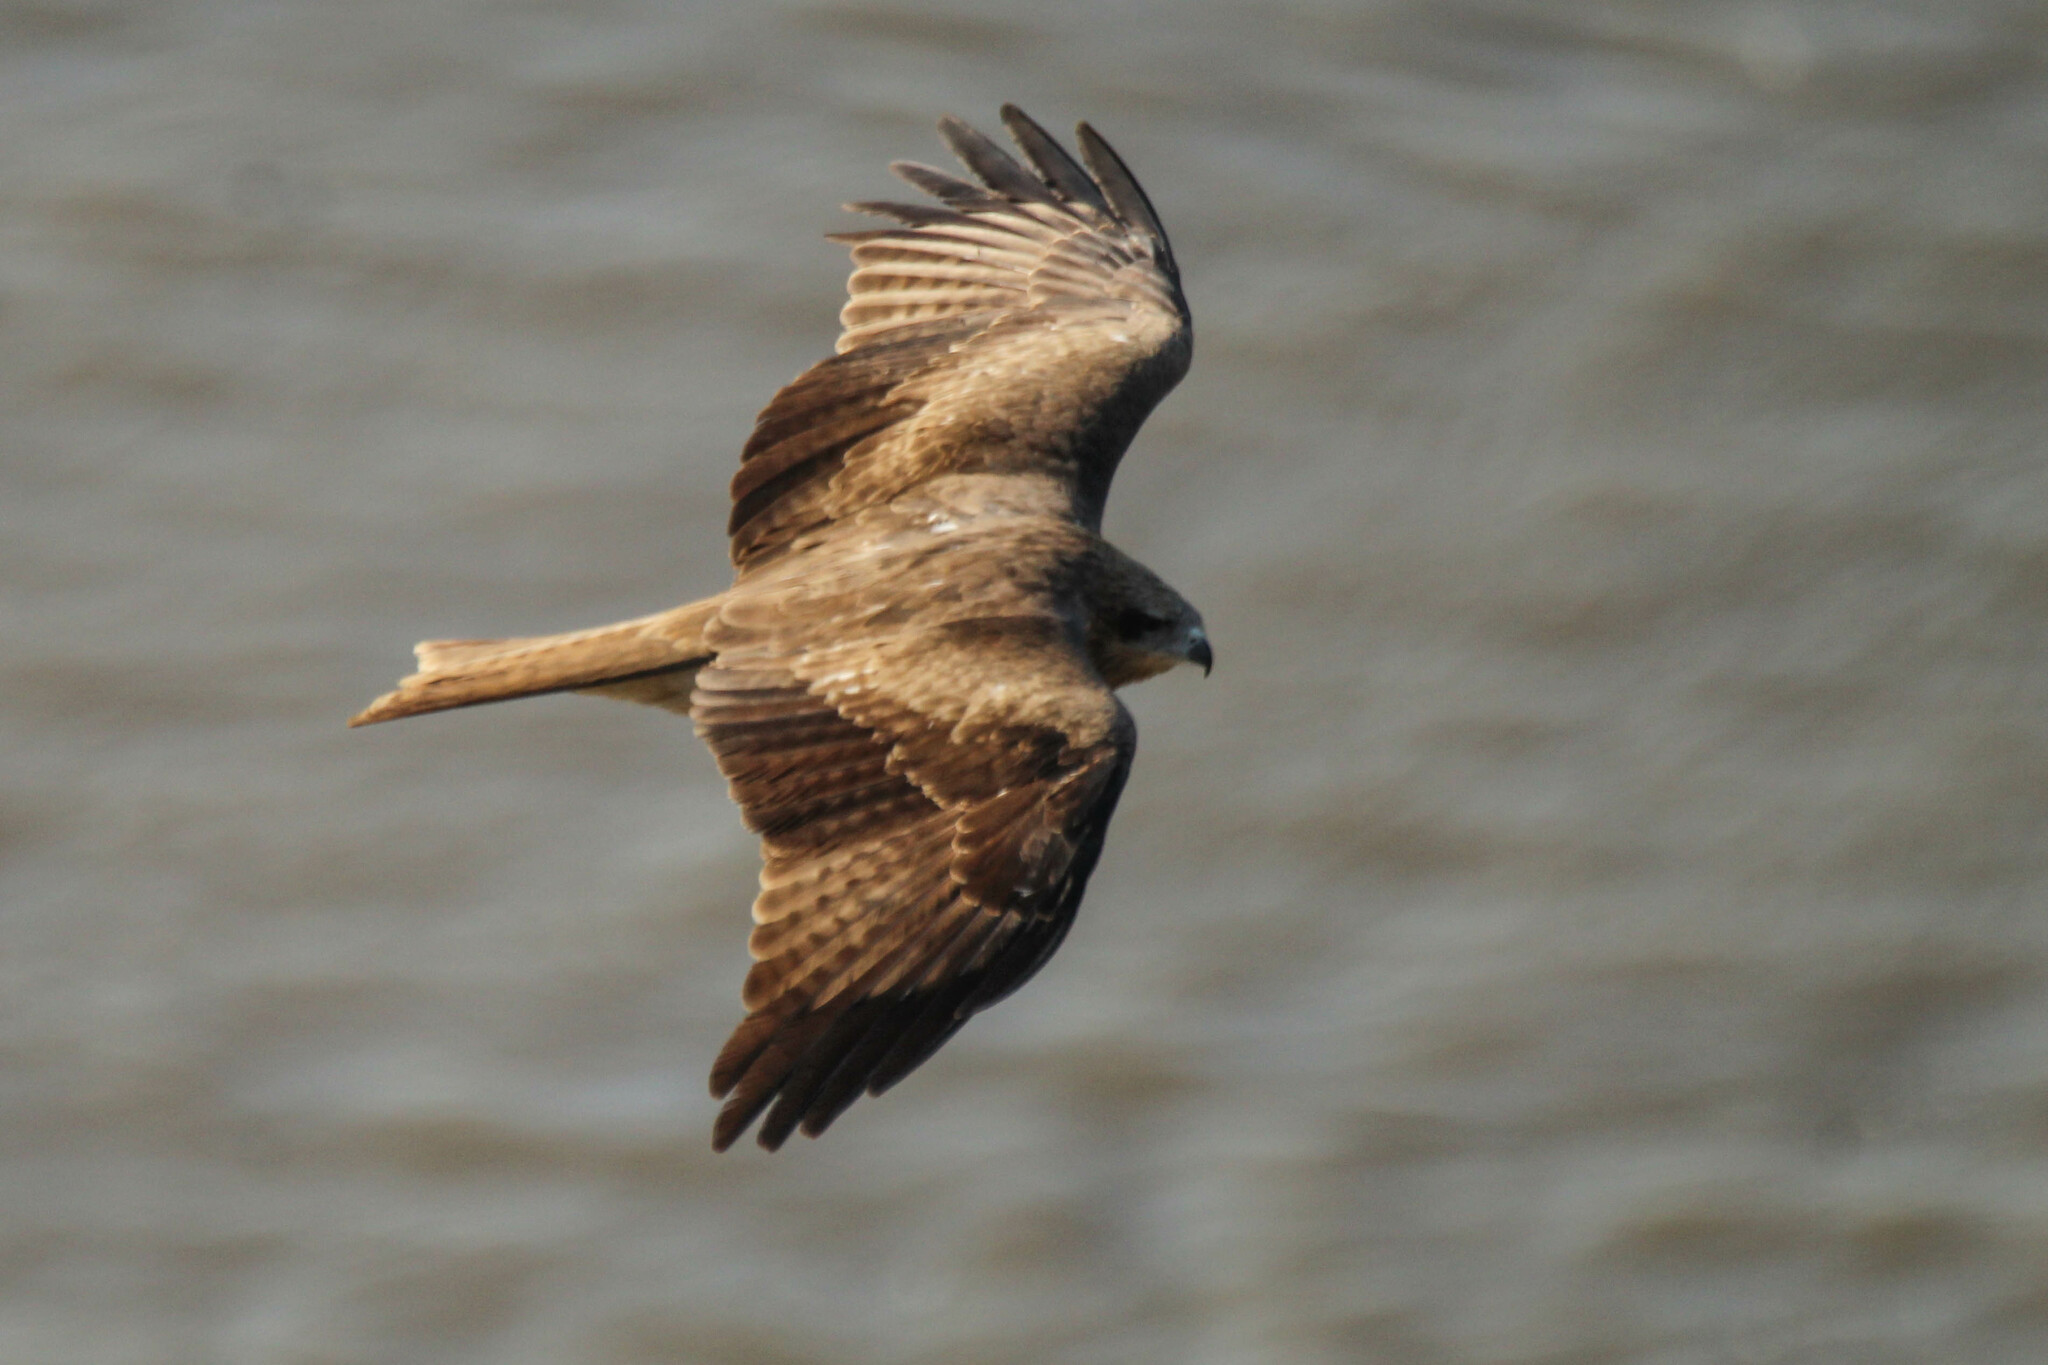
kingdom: Animalia
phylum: Chordata
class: Aves
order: Accipitriformes
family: Accipitridae
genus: Milvus
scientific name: Milvus migrans
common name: Black kite
